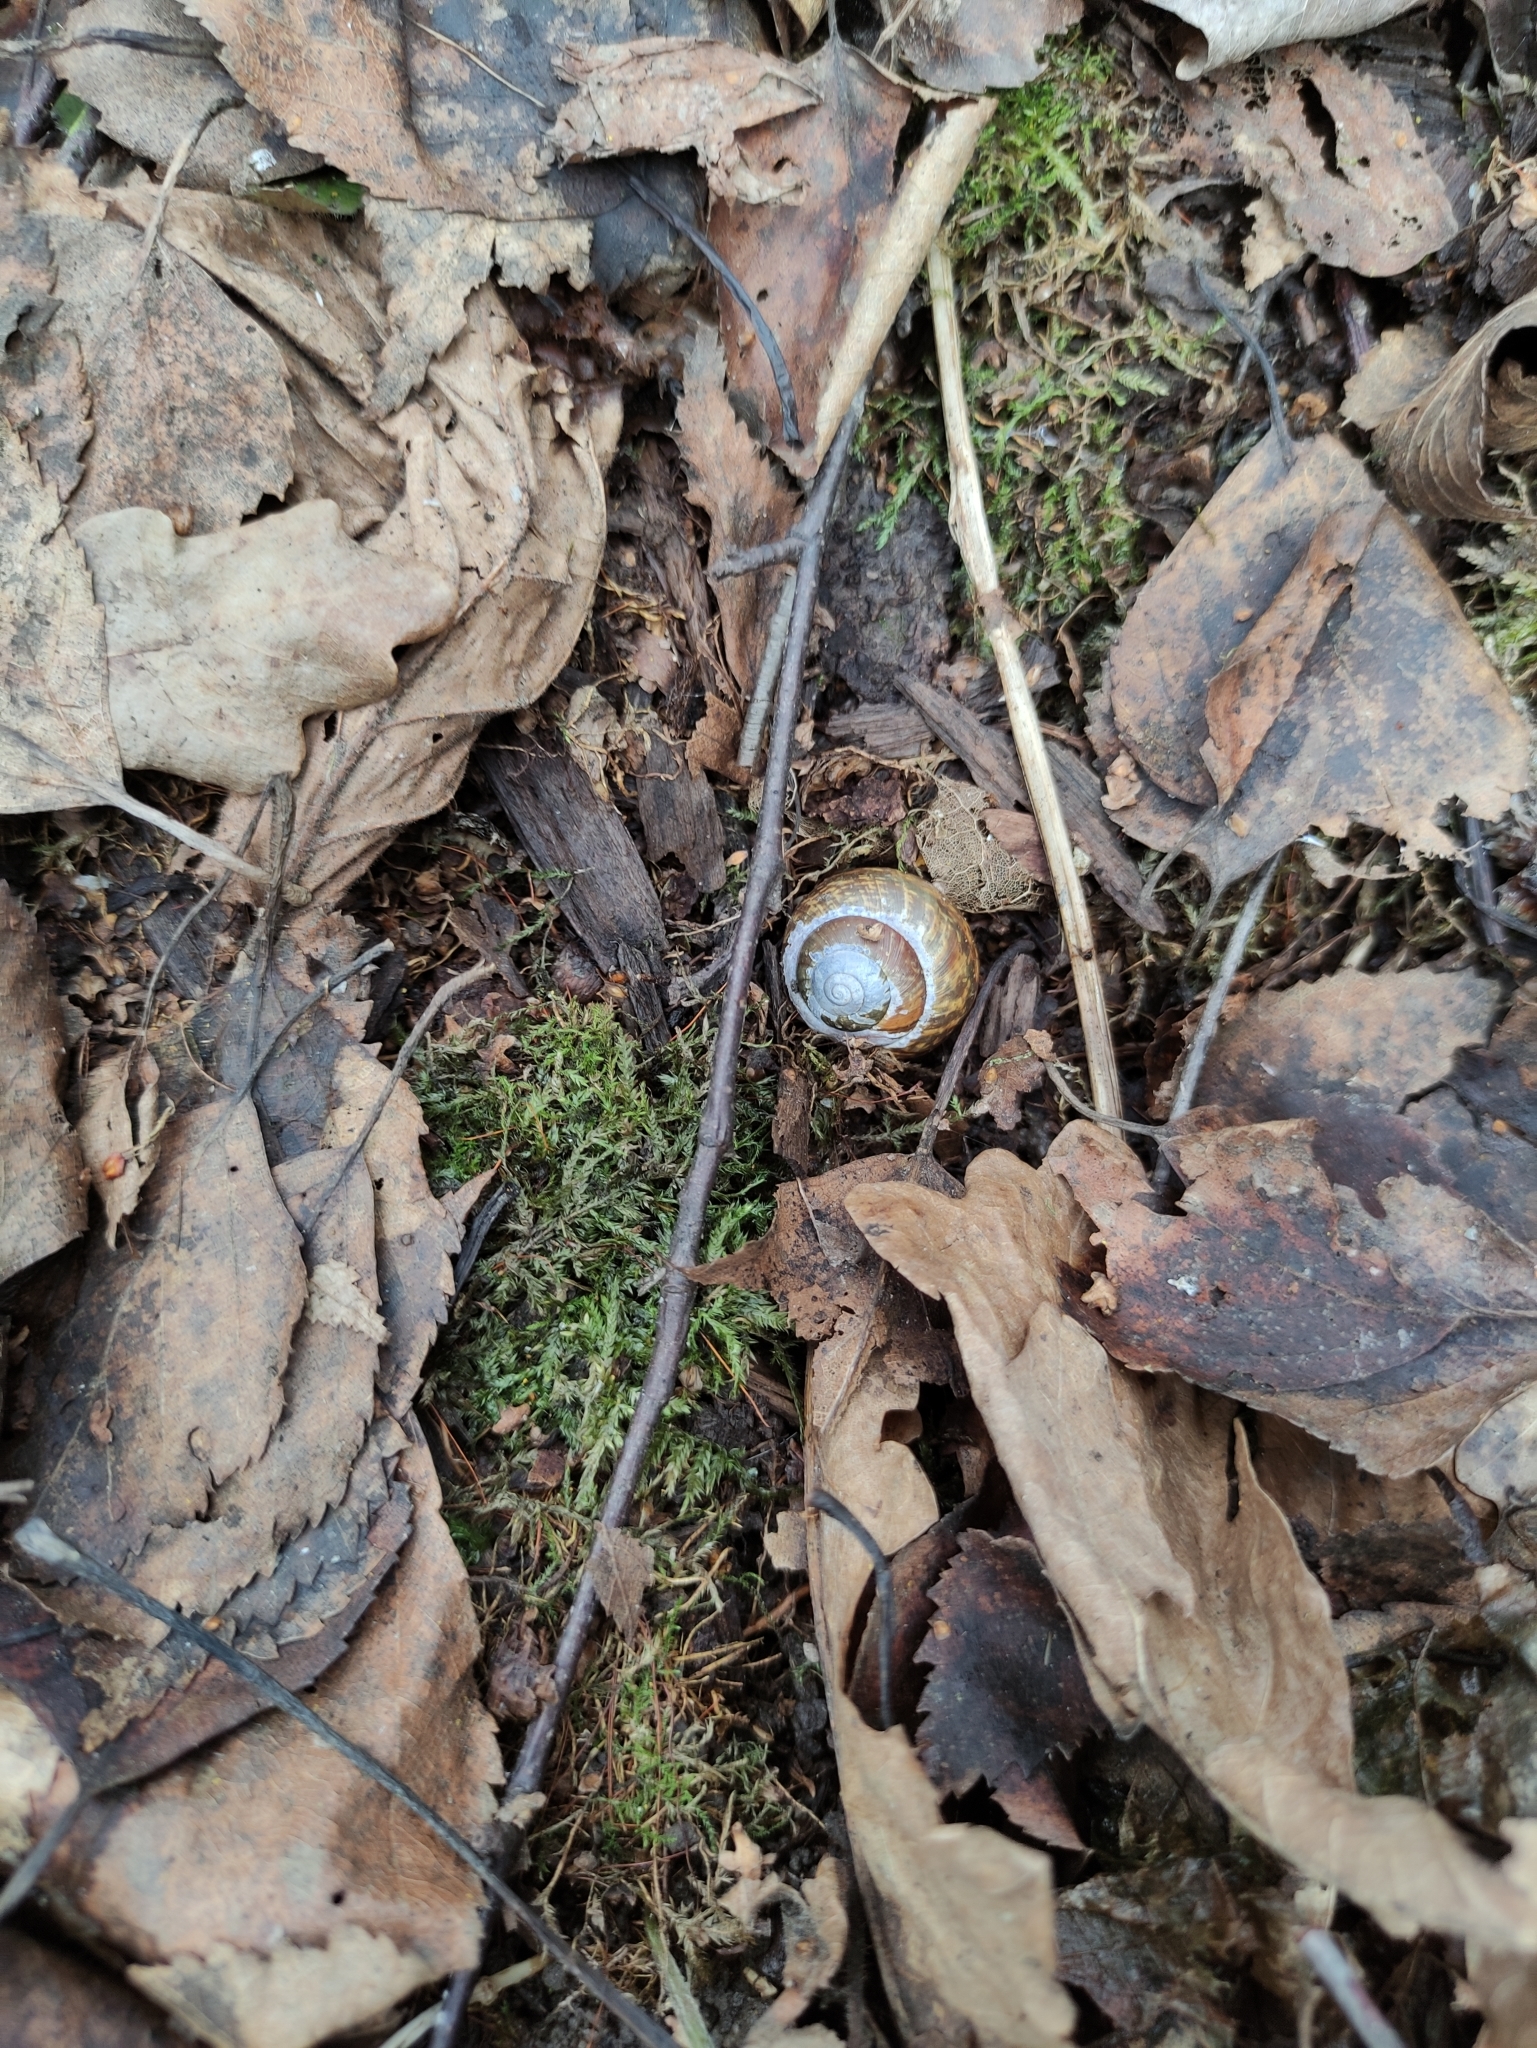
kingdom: Animalia
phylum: Mollusca
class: Gastropoda
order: Stylommatophora
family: Helicidae
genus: Arianta
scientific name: Arianta arbustorum
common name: Copse snail
